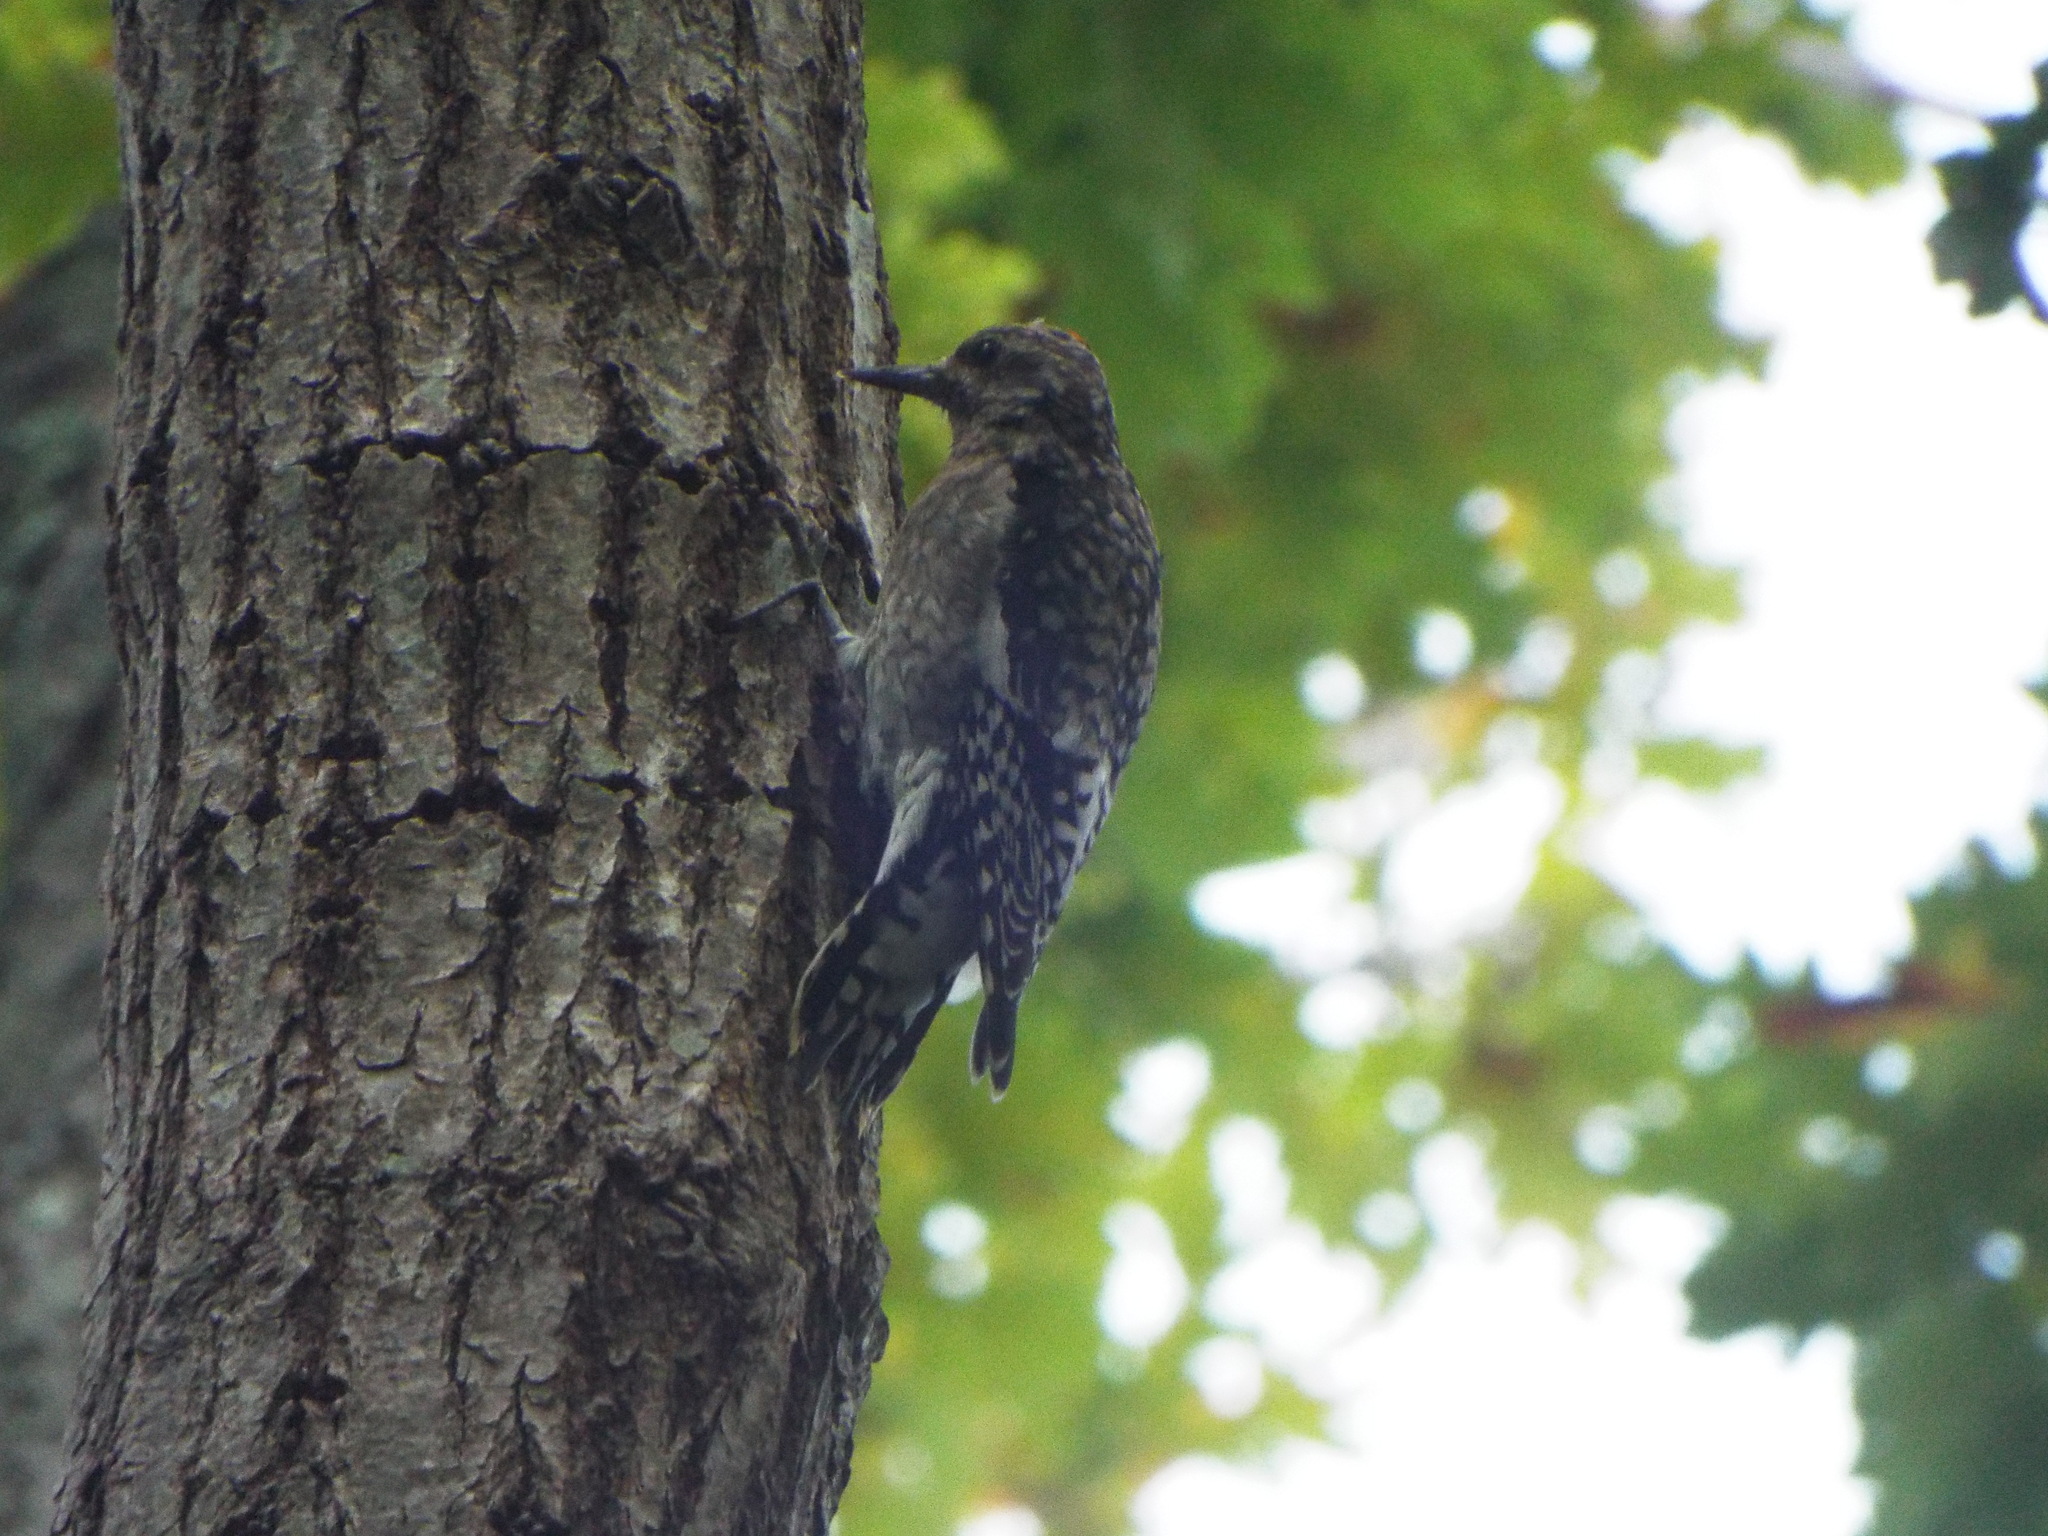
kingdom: Animalia
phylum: Chordata
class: Aves
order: Piciformes
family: Picidae
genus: Sphyrapicus
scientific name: Sphyrapicus varius
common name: Yellow-bellied sapsucker
